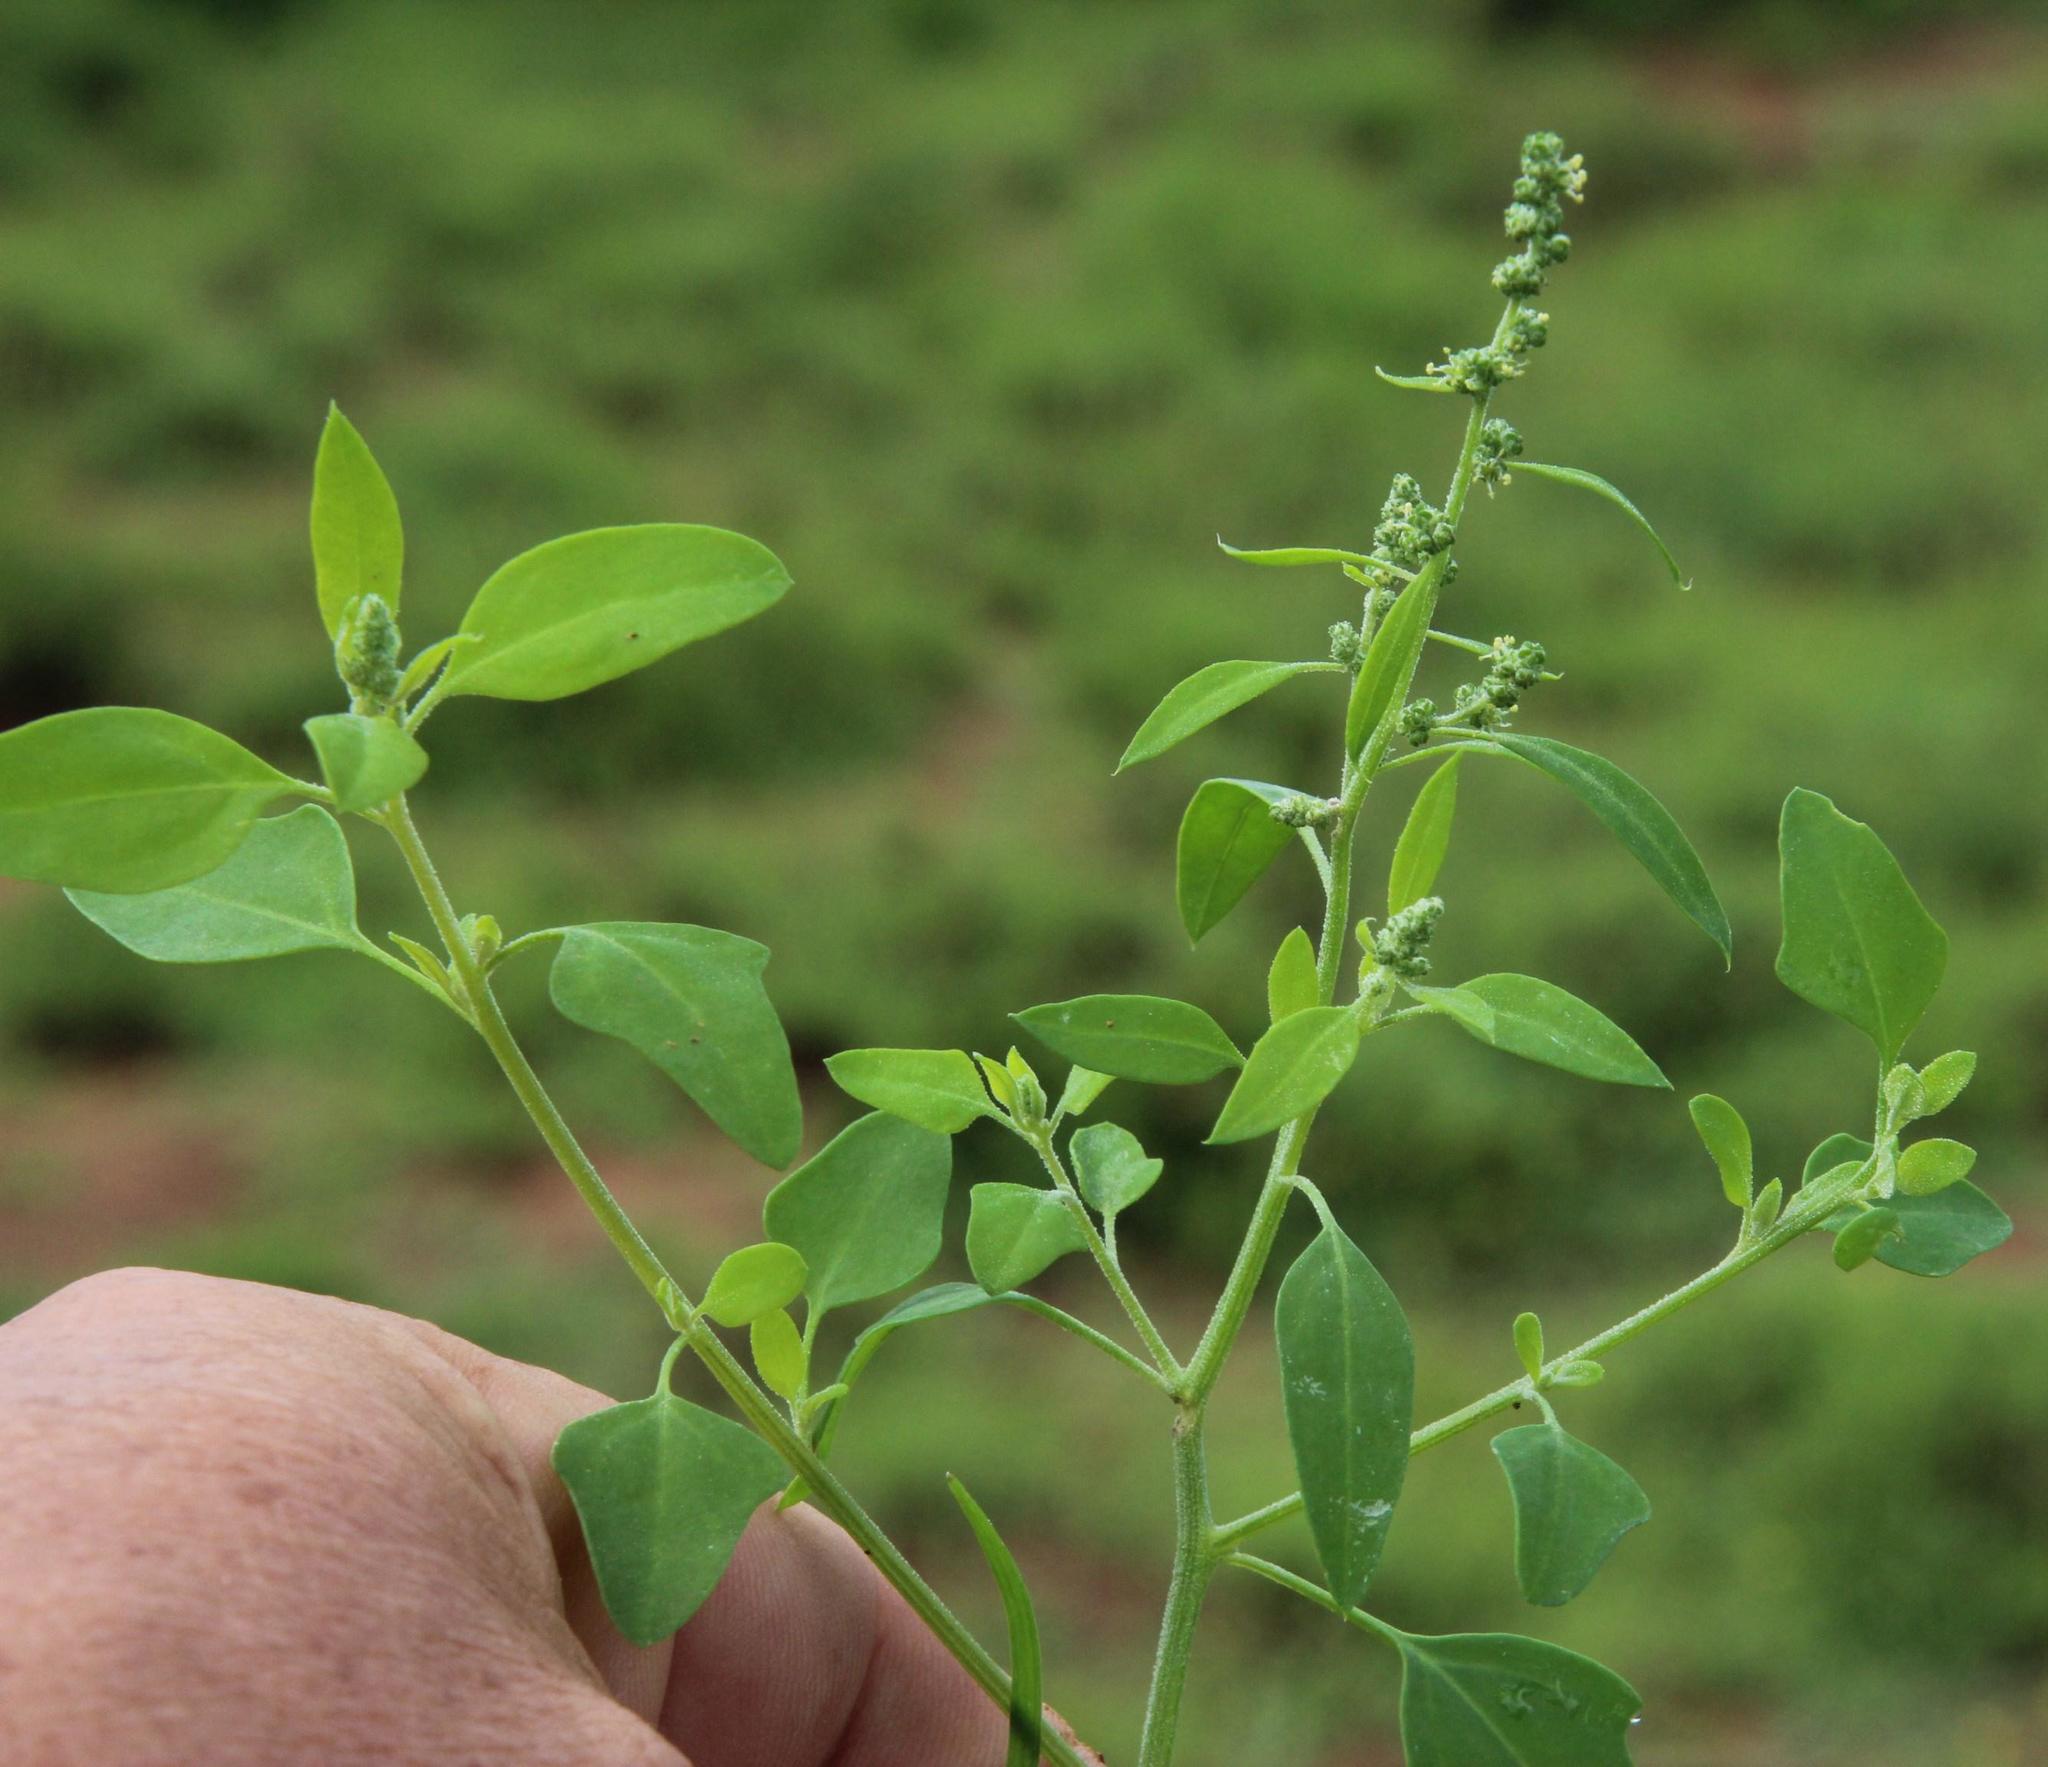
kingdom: Plantae
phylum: Tracheophyta
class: Magnoliopsida
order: Caryophyllales
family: Amaranthaceae
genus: Chenopodium
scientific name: Chenopodium phillipsianum
